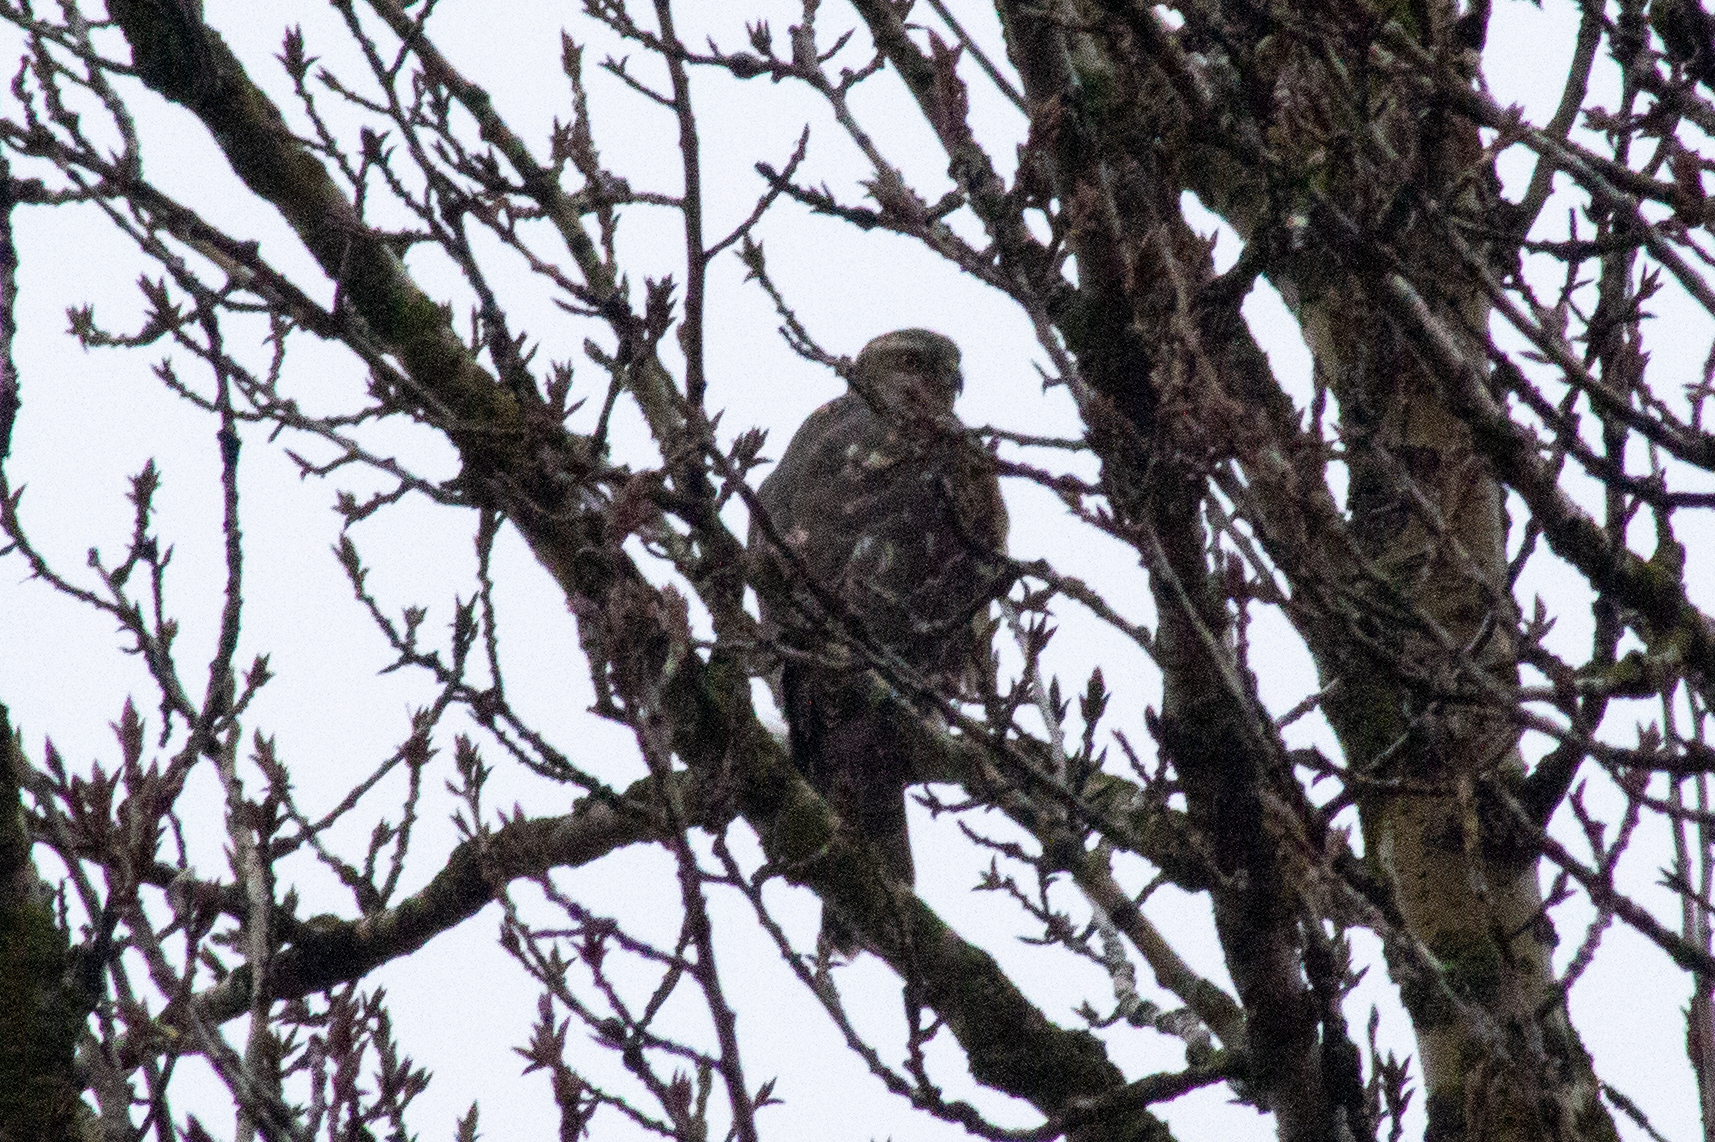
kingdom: Animalia
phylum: Chordata
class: Aves
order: Accipitriformes
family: Accipitridae
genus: Accipiter
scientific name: Accipiter gentilis
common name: Northern goshawk
